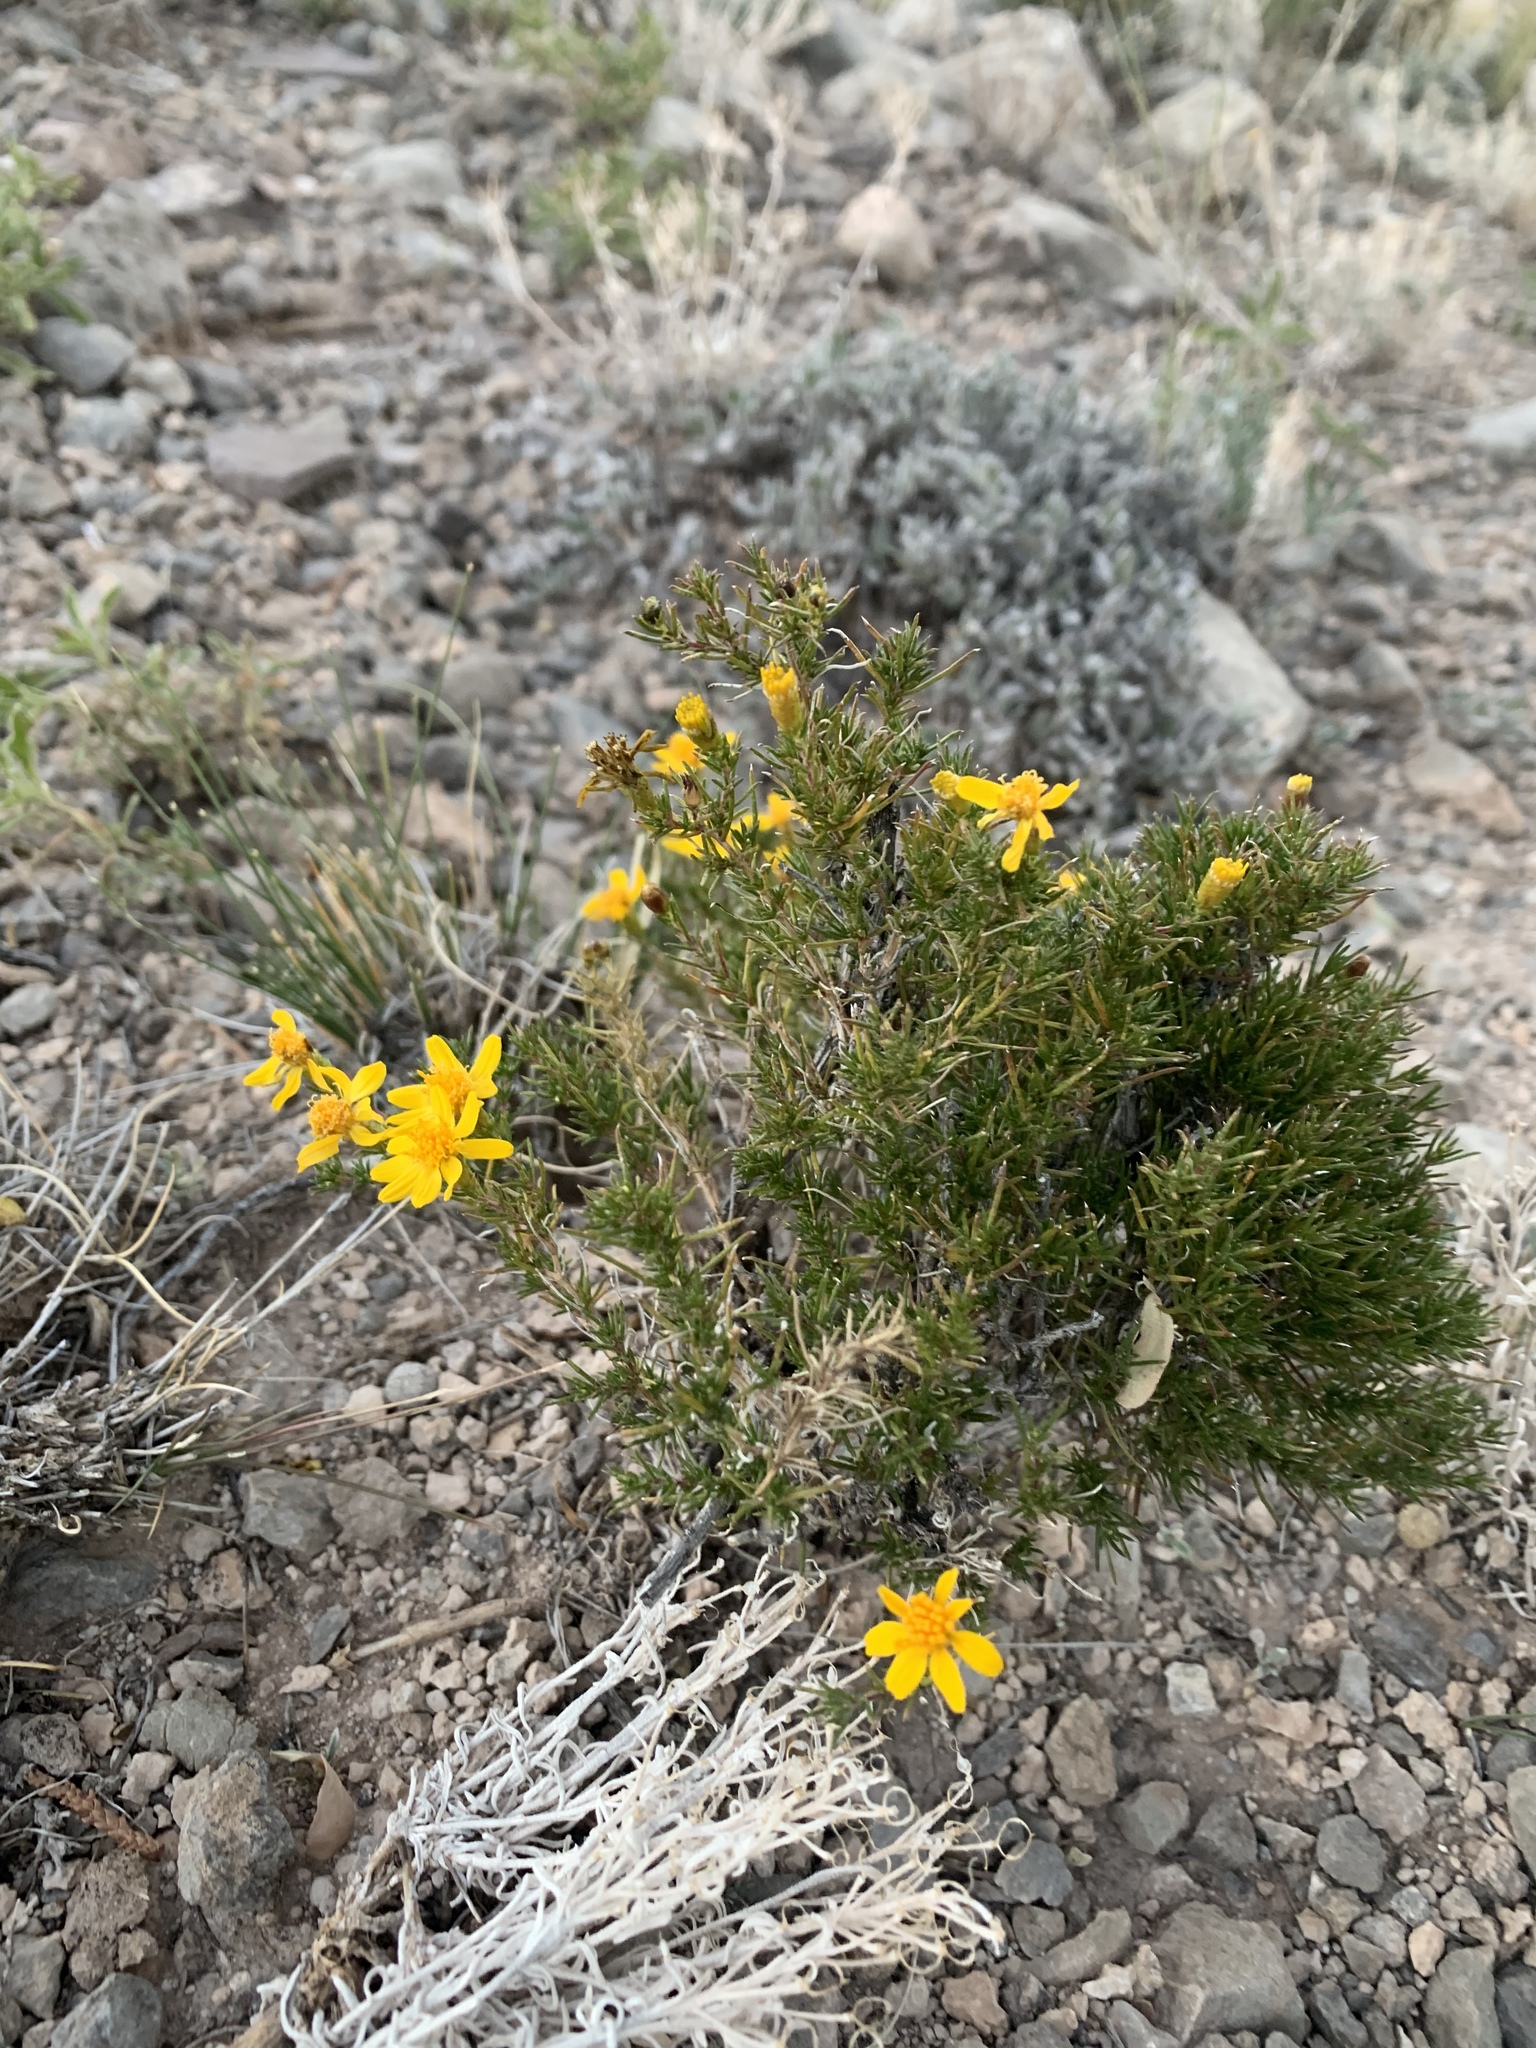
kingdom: Plantae
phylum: Tracheophyta
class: Magnoliopsida
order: Asterales
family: Asteraceae
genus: Thymophylla
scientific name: Thymophylla acerosa
